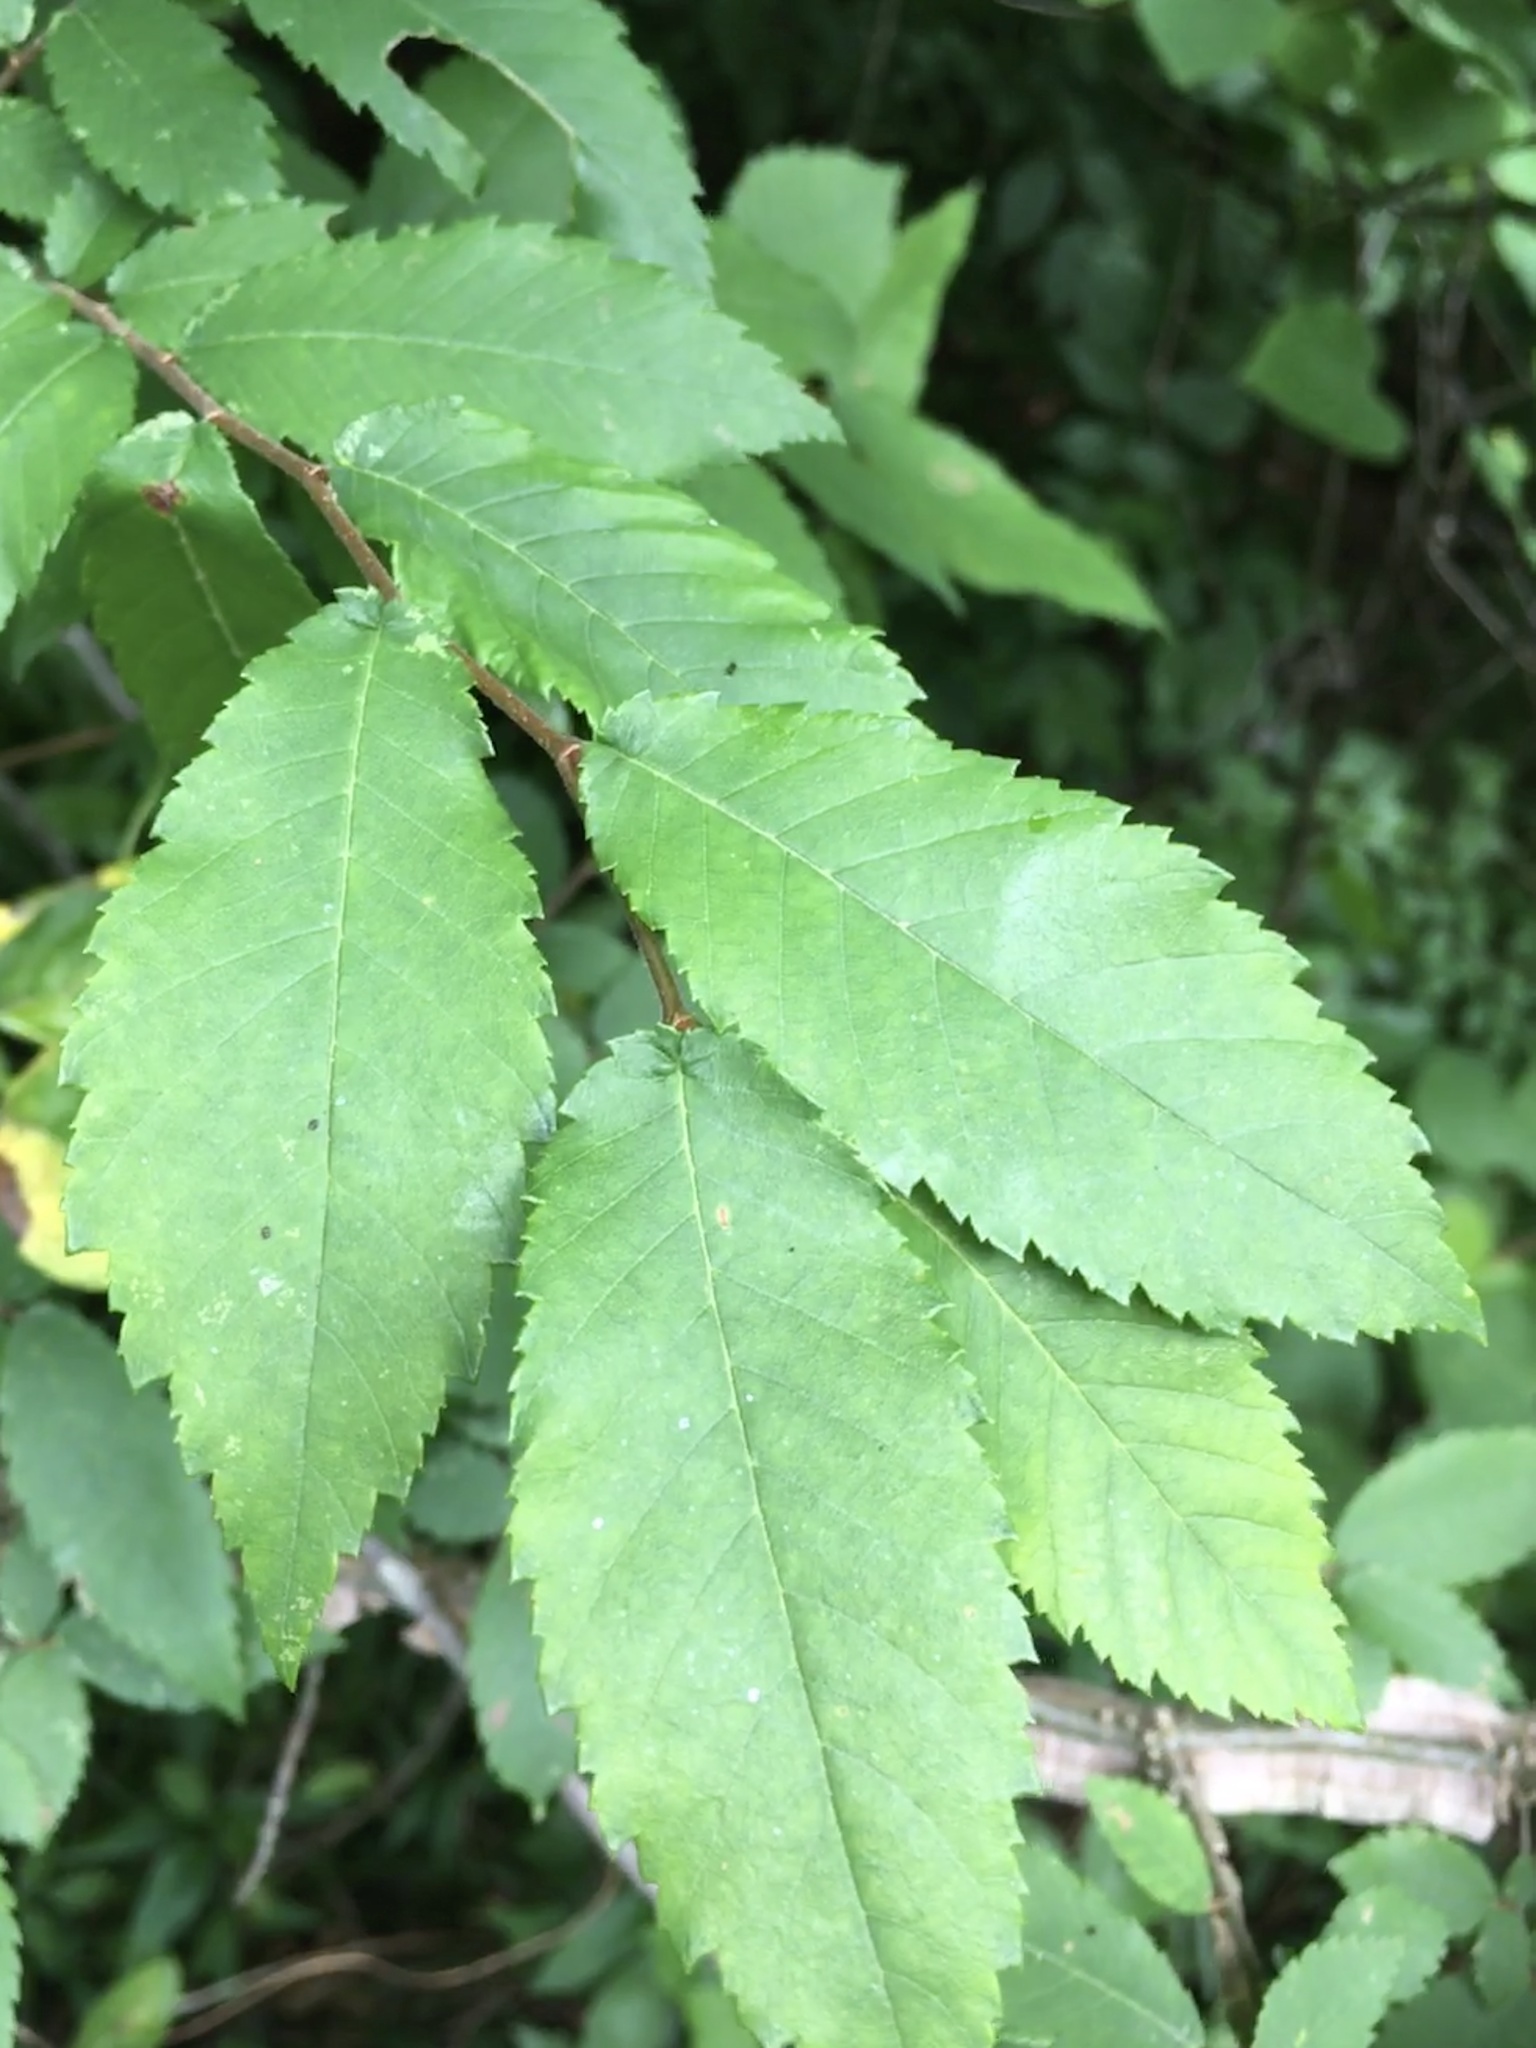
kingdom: Plantae
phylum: Tracheophyta
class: Magnoliopsida
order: Rosales
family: Ulmaceae
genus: Ulmus
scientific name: Ulmus alata
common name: Winged elm
